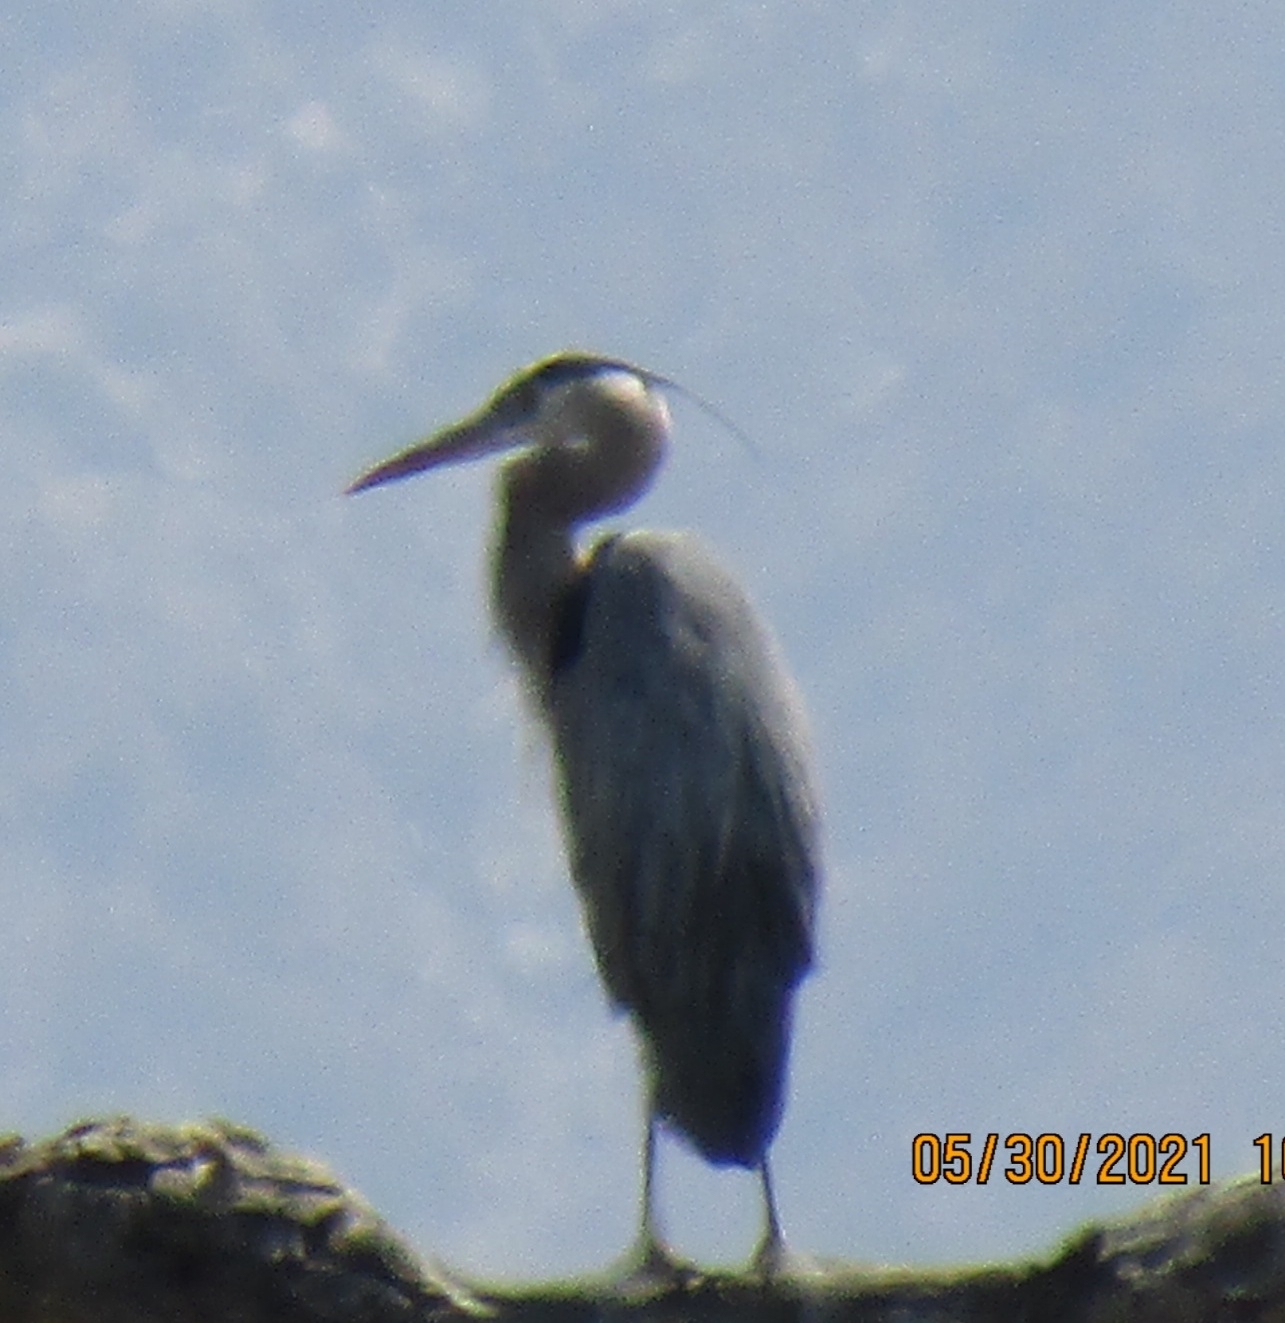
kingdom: Animalia
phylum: Chordata
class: Aves
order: Pelecaniformes
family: Ardeidae
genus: Ardea
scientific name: Ardea herodias
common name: Great blue heron
